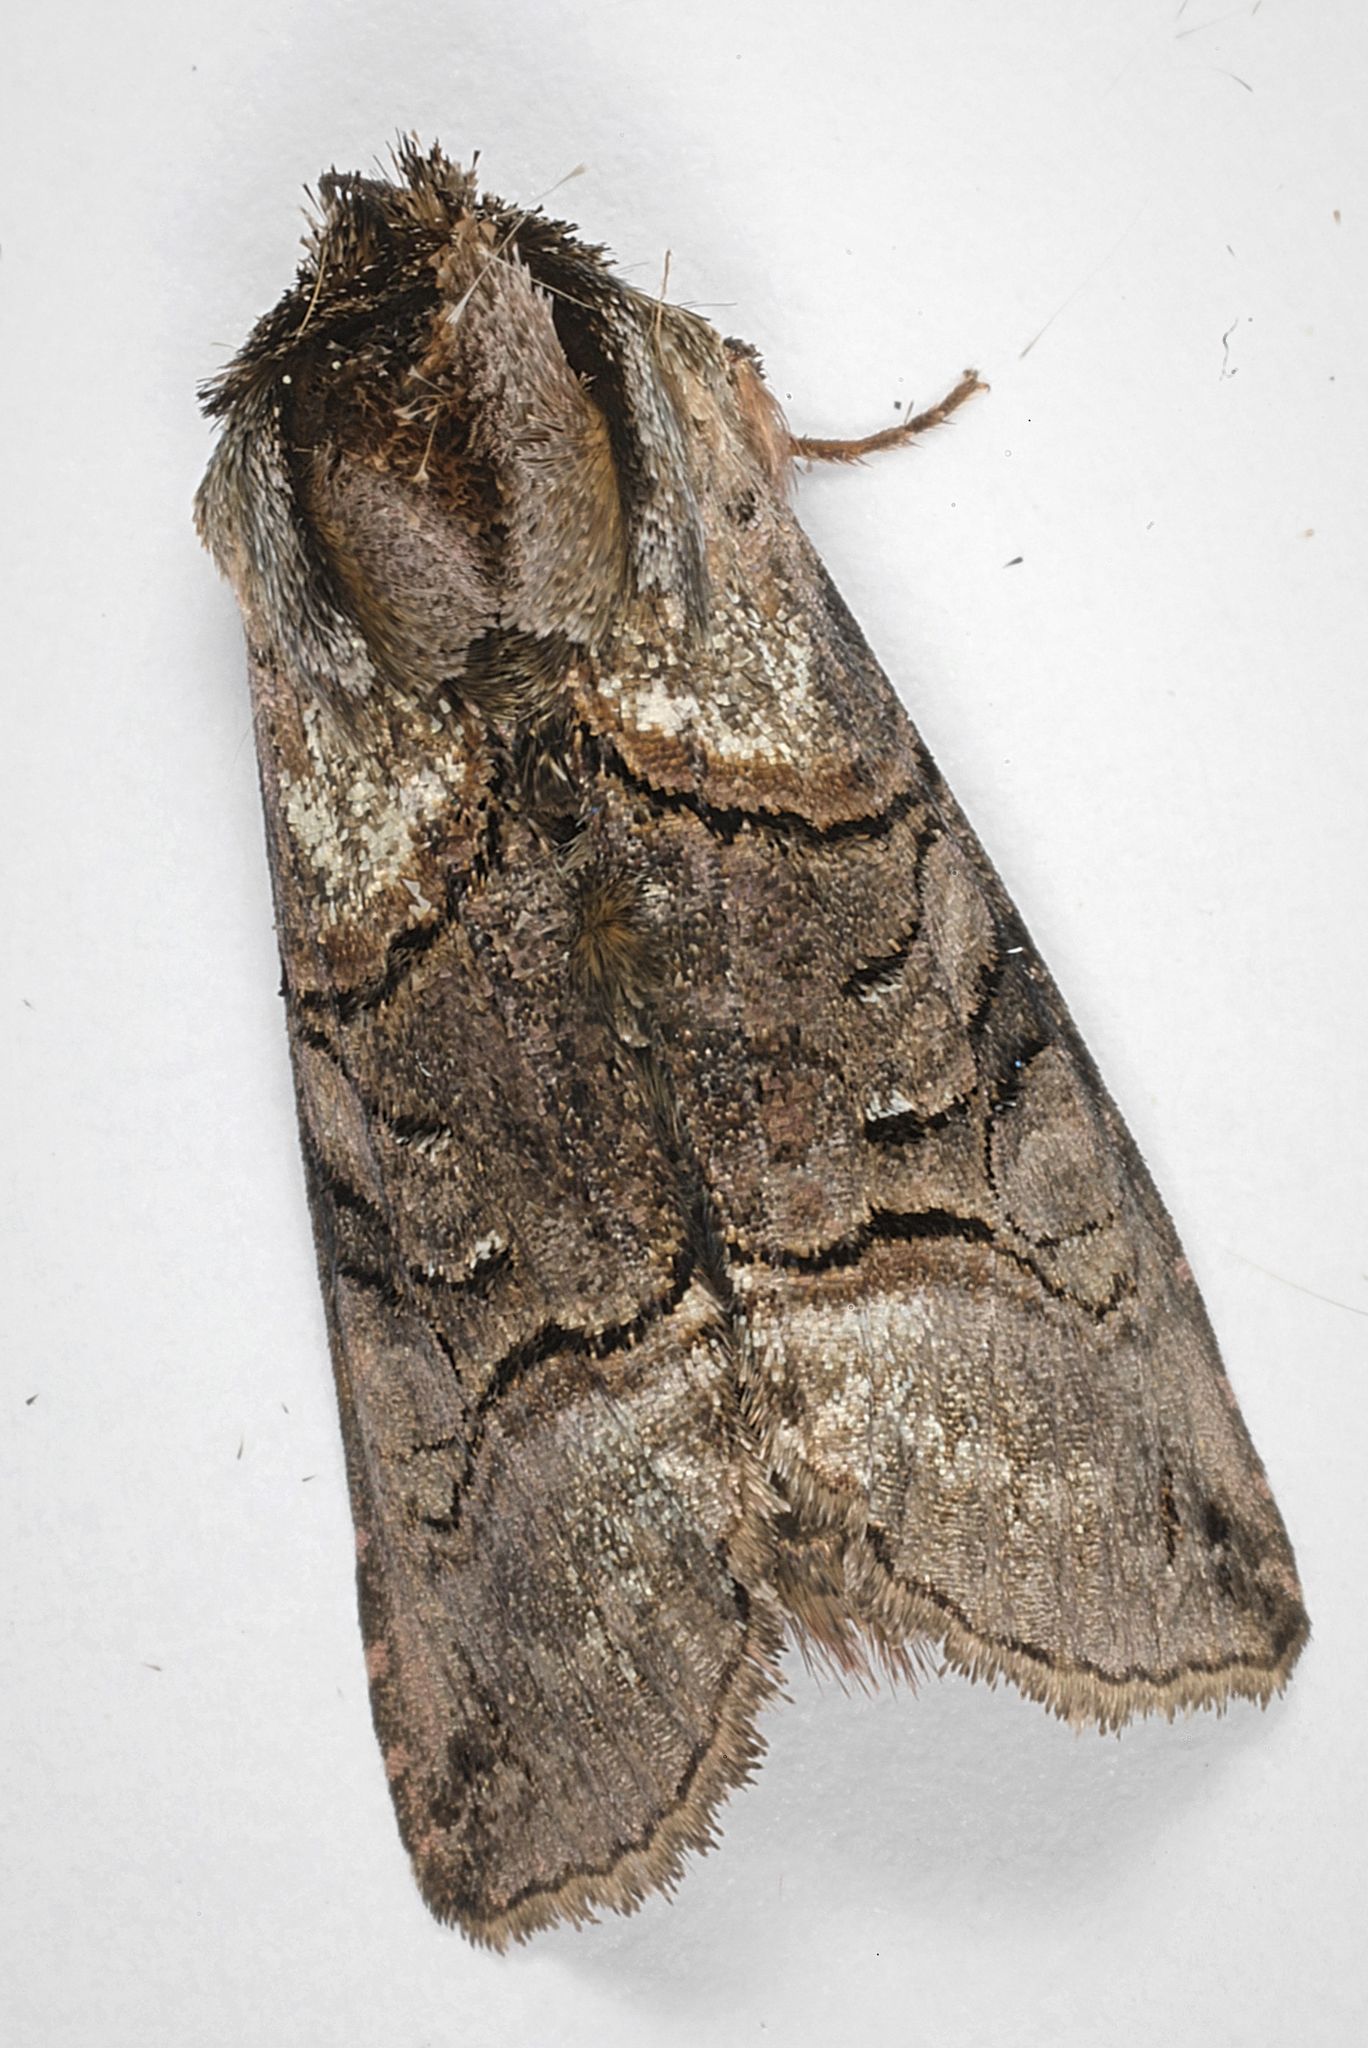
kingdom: Animalia
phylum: Arthropoda
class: Insecta
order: Lepidoptera
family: Noctuidae
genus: Abrostola
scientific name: Abrostola tripartita
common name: Spectacle
